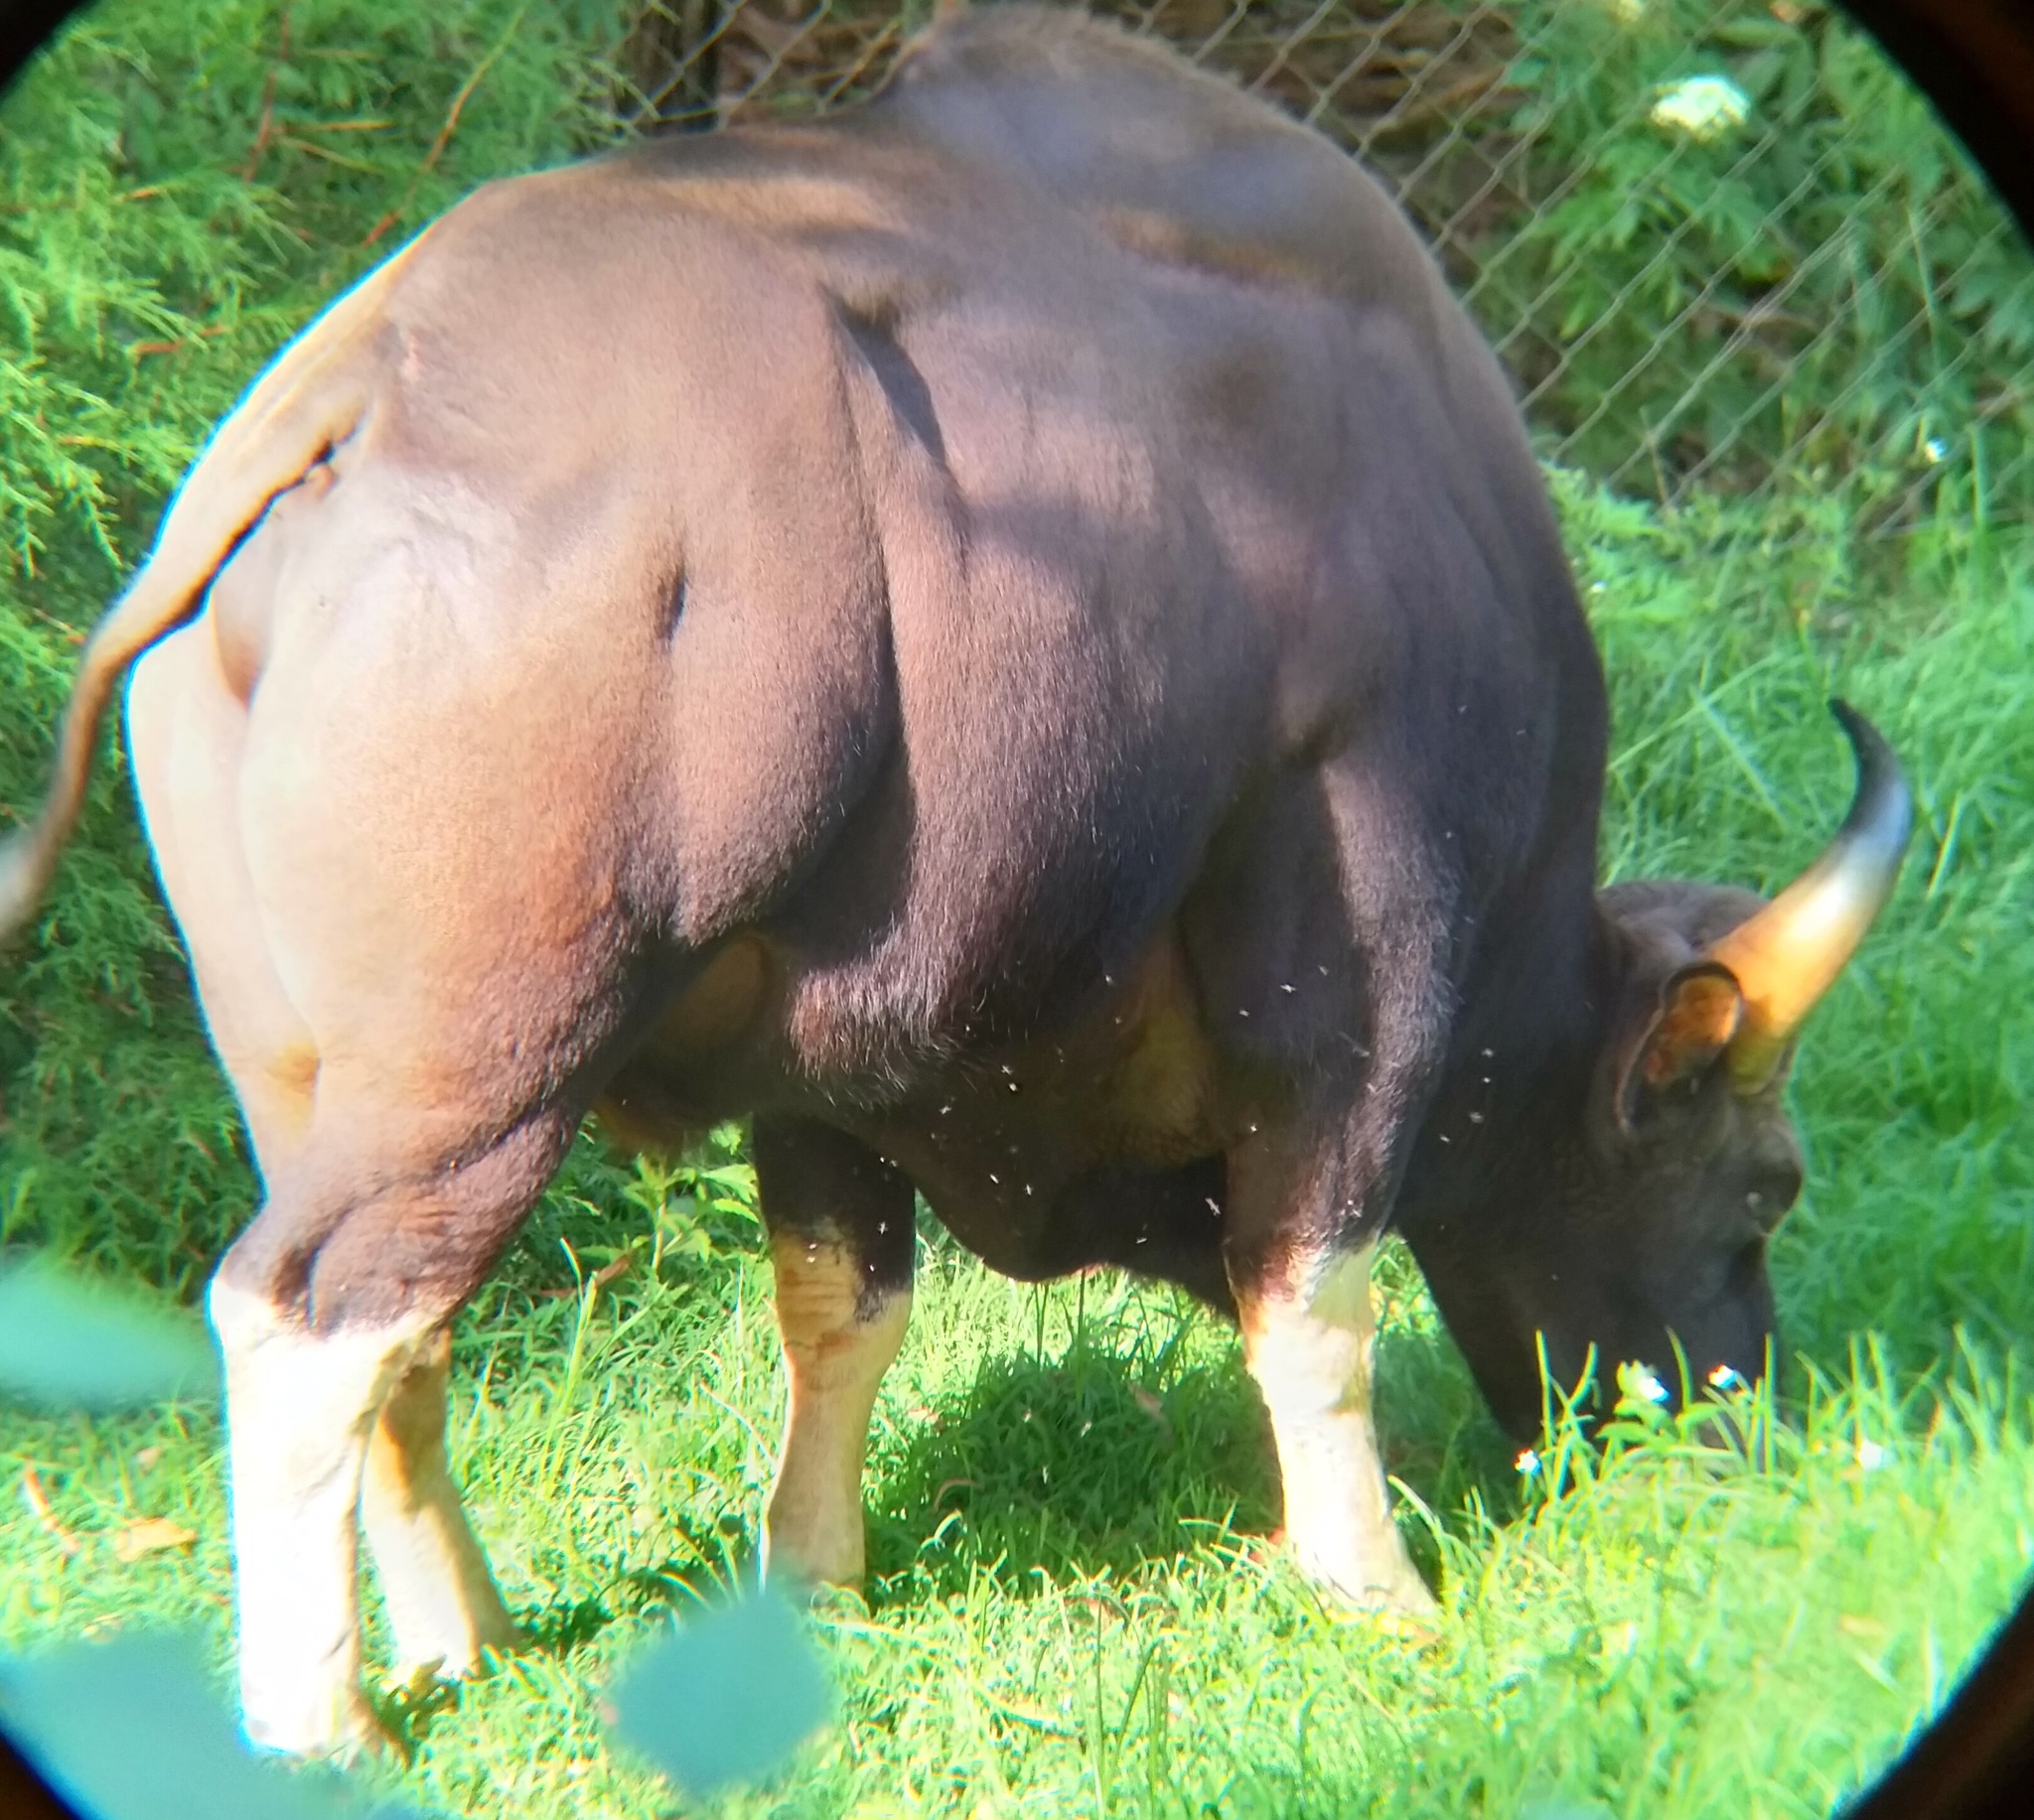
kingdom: Animalia
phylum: Chordata
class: Mammalia
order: Artiodactyla
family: Bovidae
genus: Bos
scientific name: Bos frontalis
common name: Gaur
